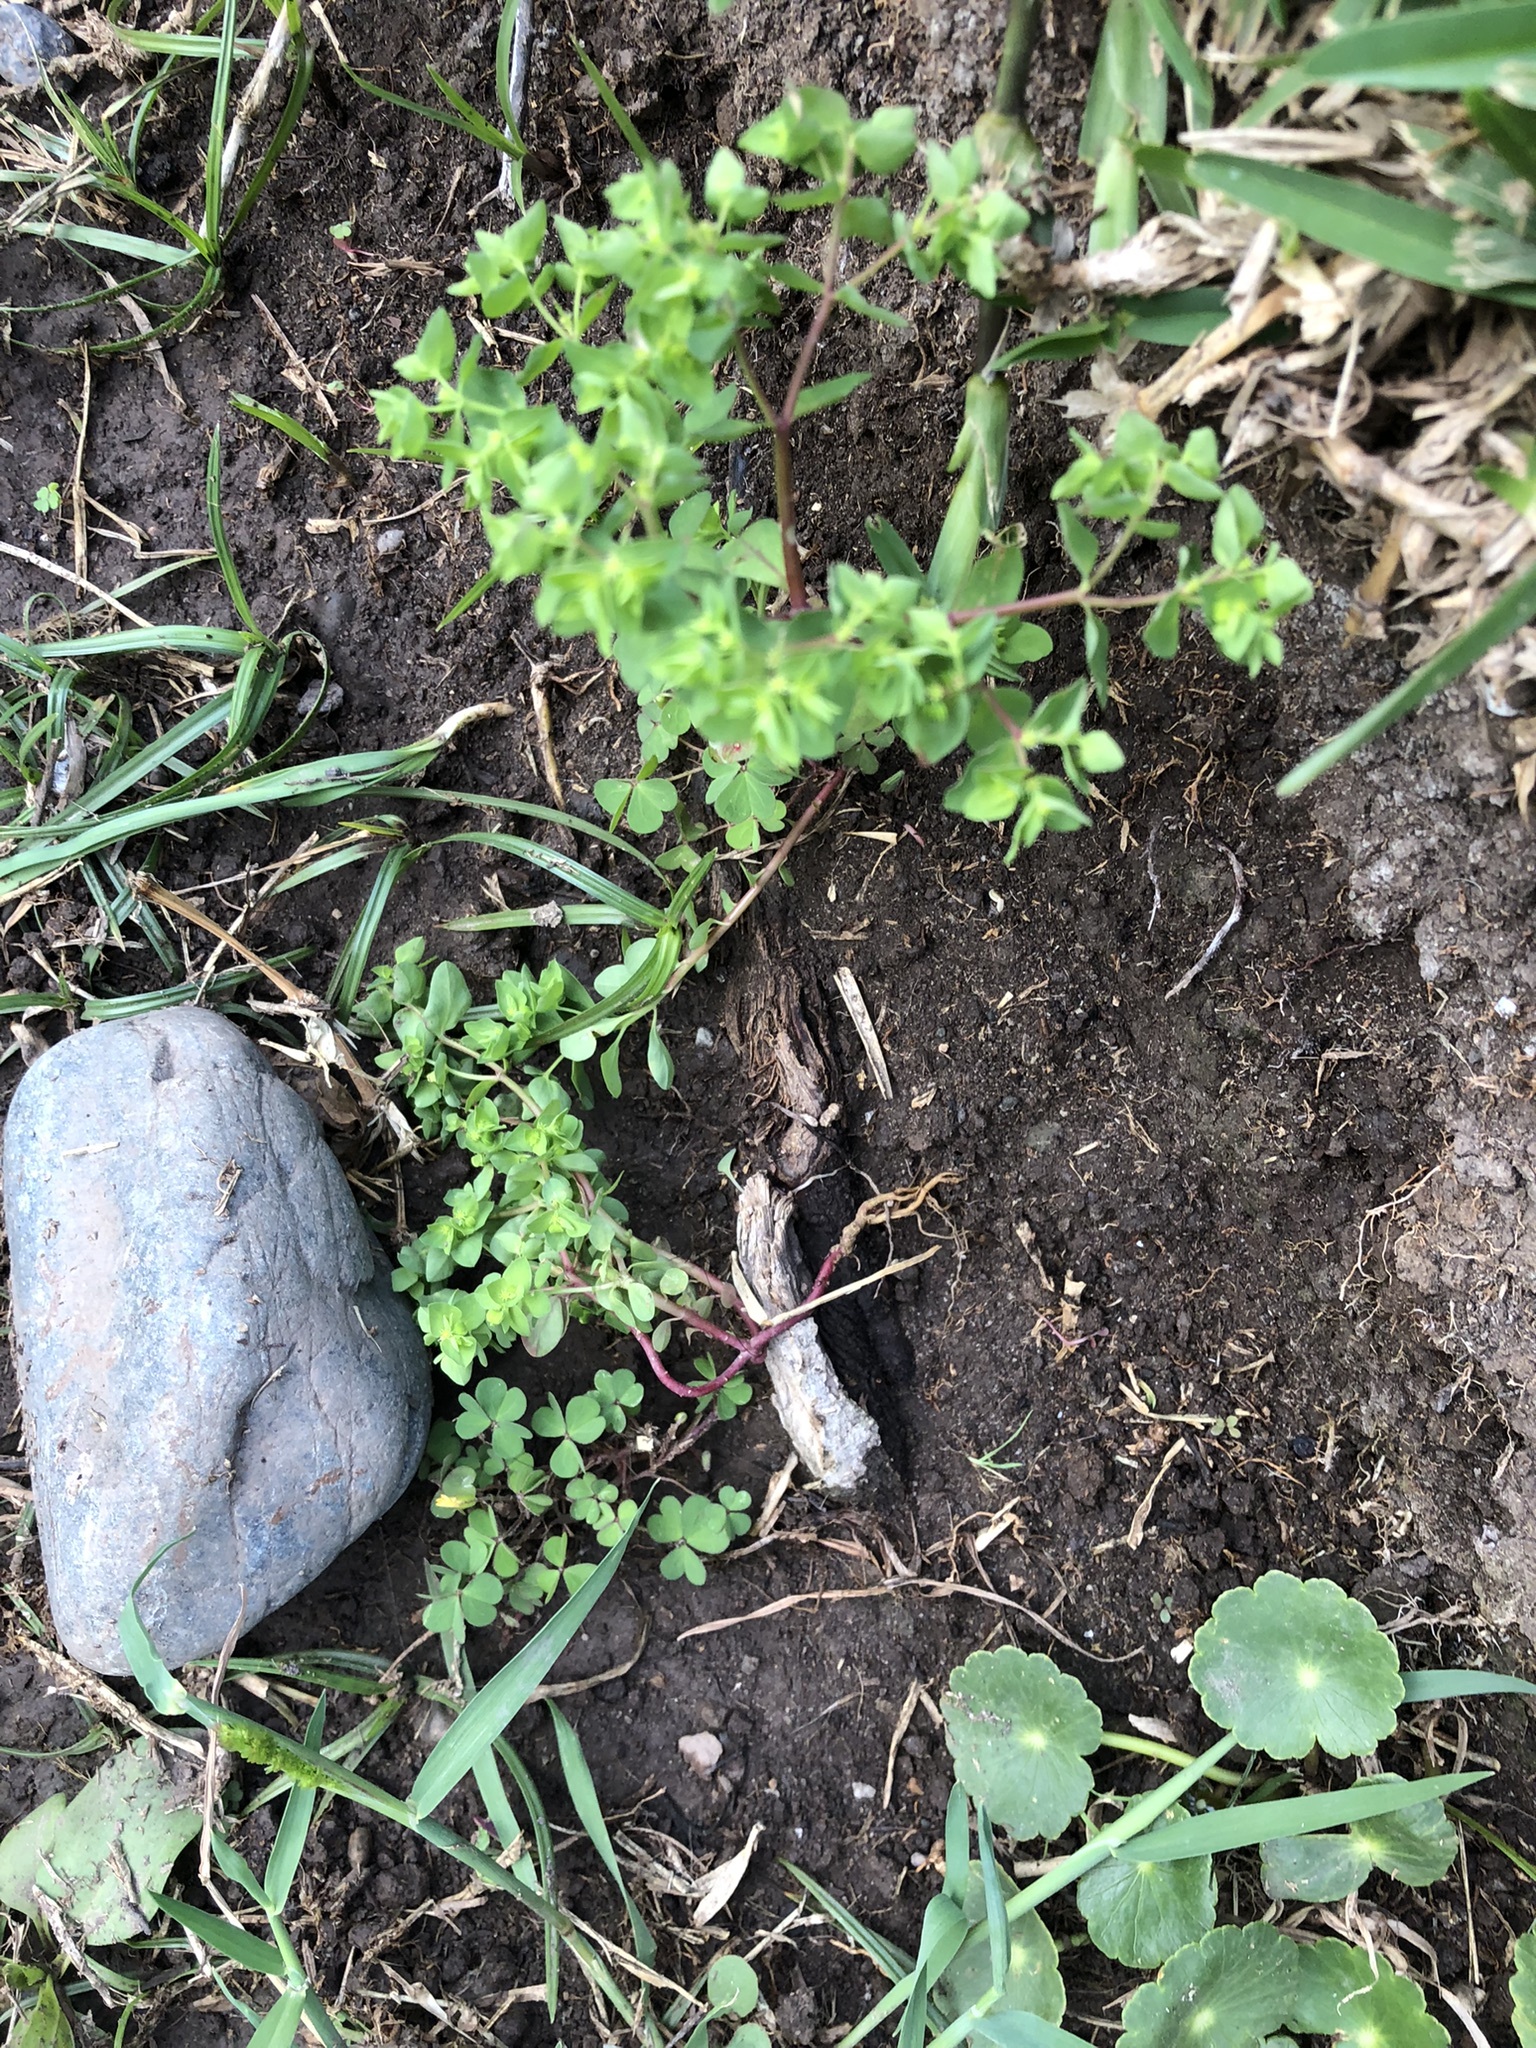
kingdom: Plantae
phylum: Tracheophyta
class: Magnoliopsida
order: Malpighiales
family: Euphorbiaceae
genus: Euphorbia
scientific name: Euphorbia peplus
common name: Petty spurge
